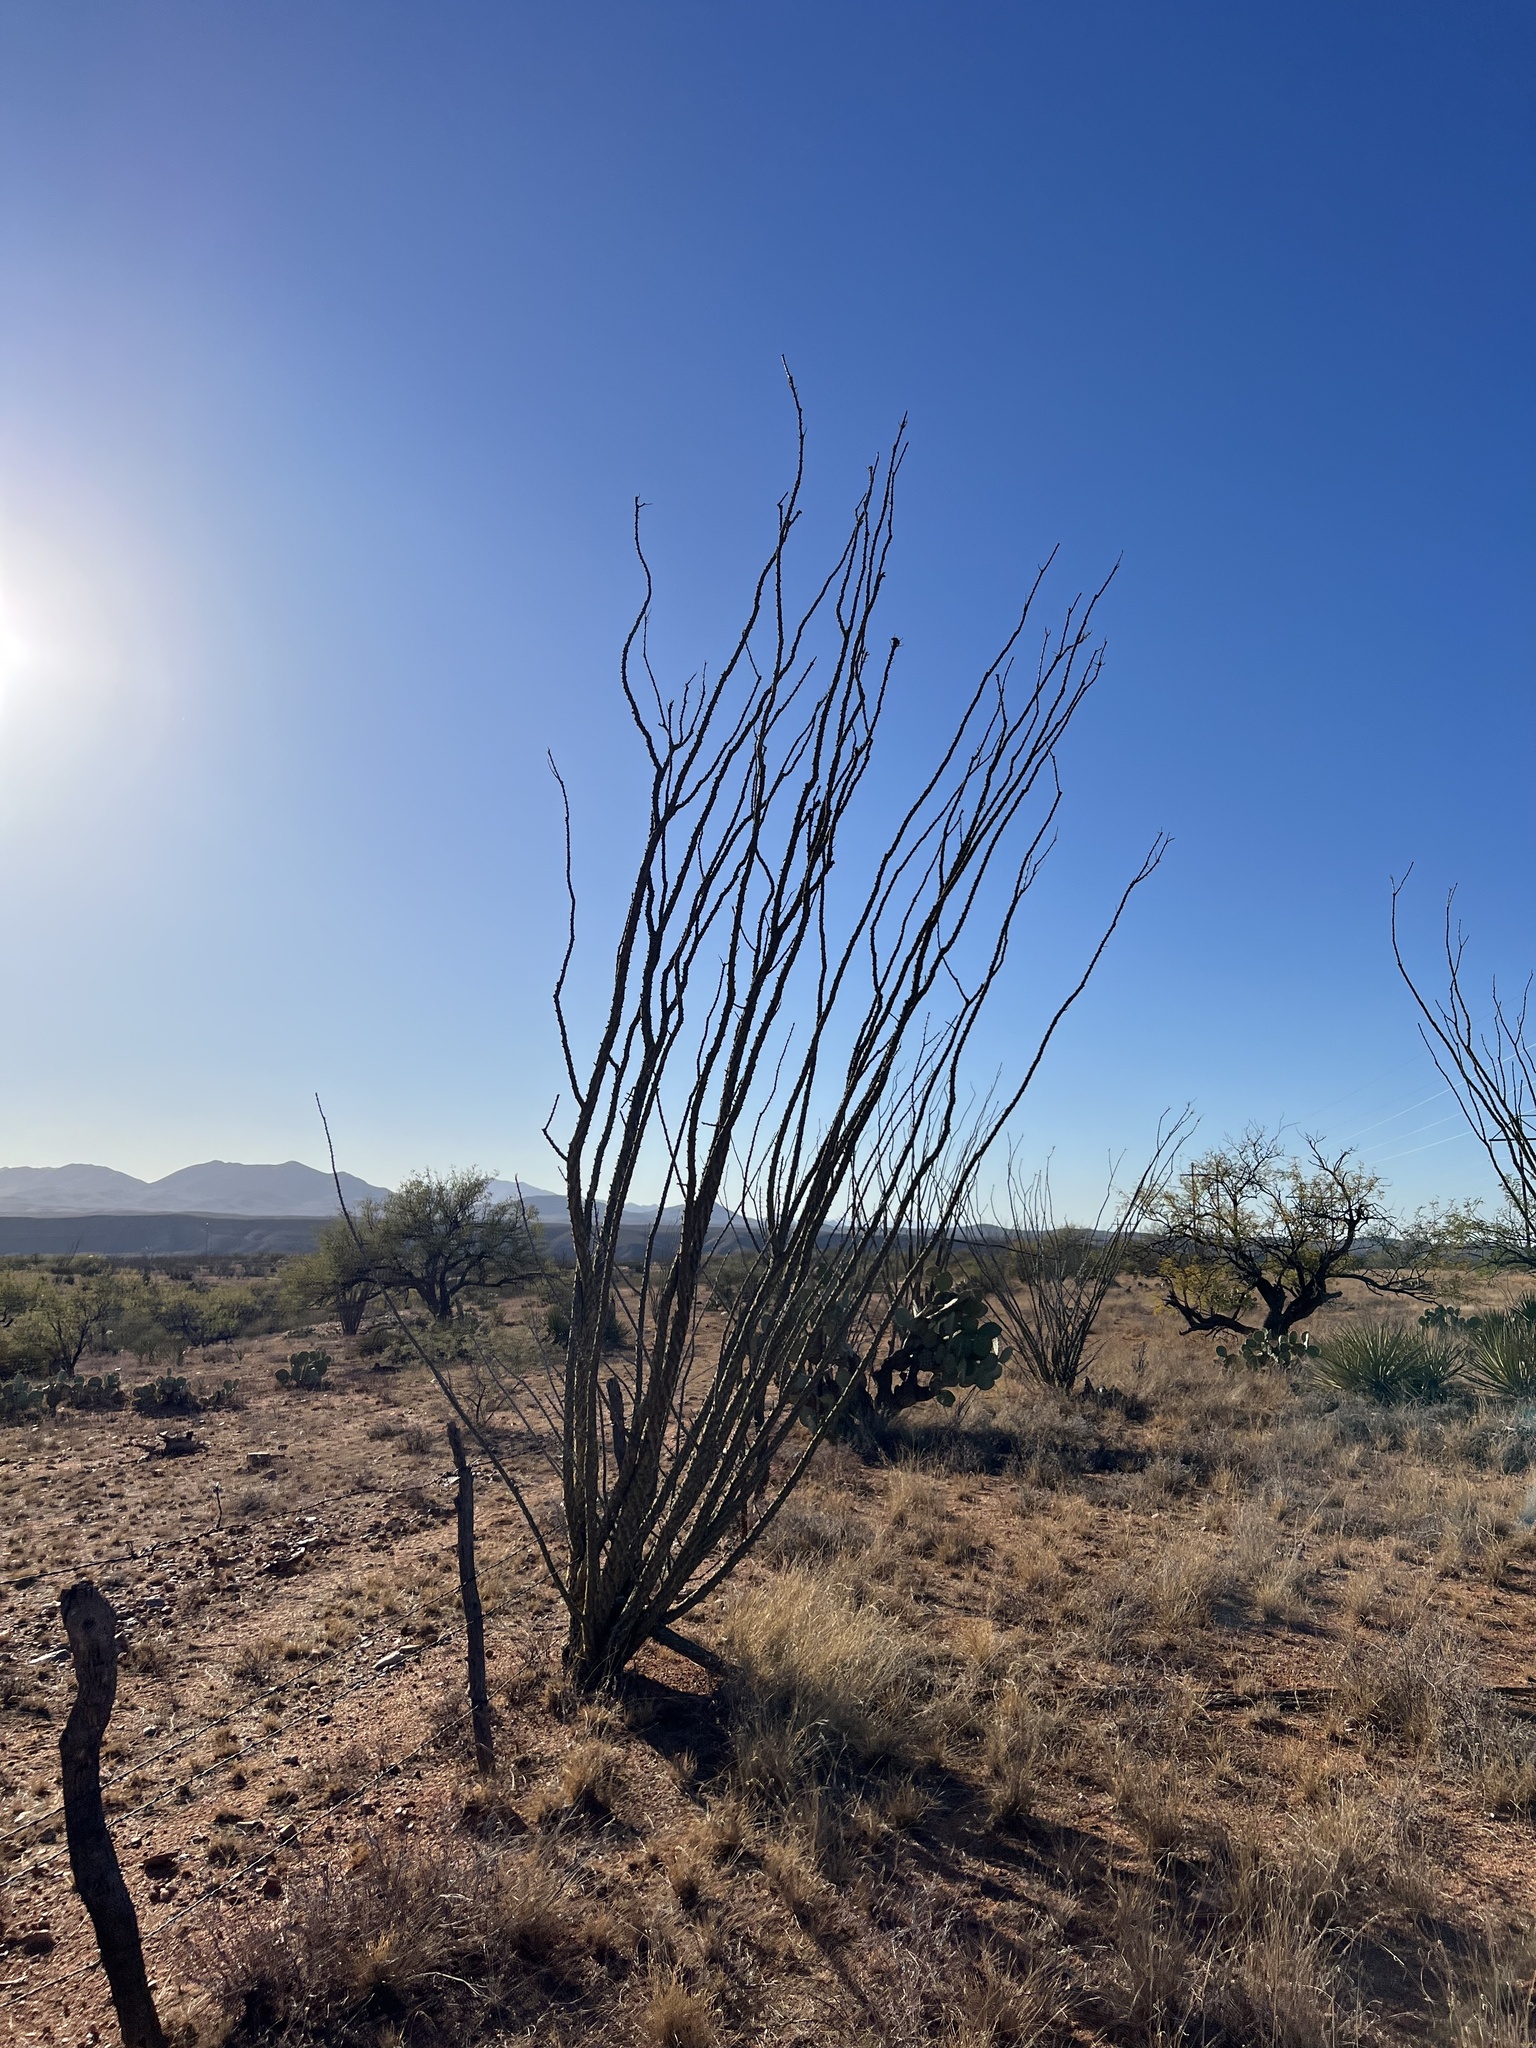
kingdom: Plantae
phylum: Tracheophyta
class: Magnoliopsida
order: Ericales
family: Fouquieriaceae
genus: Fouquieria
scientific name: Fouquieria splendens
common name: Vine-cactus
